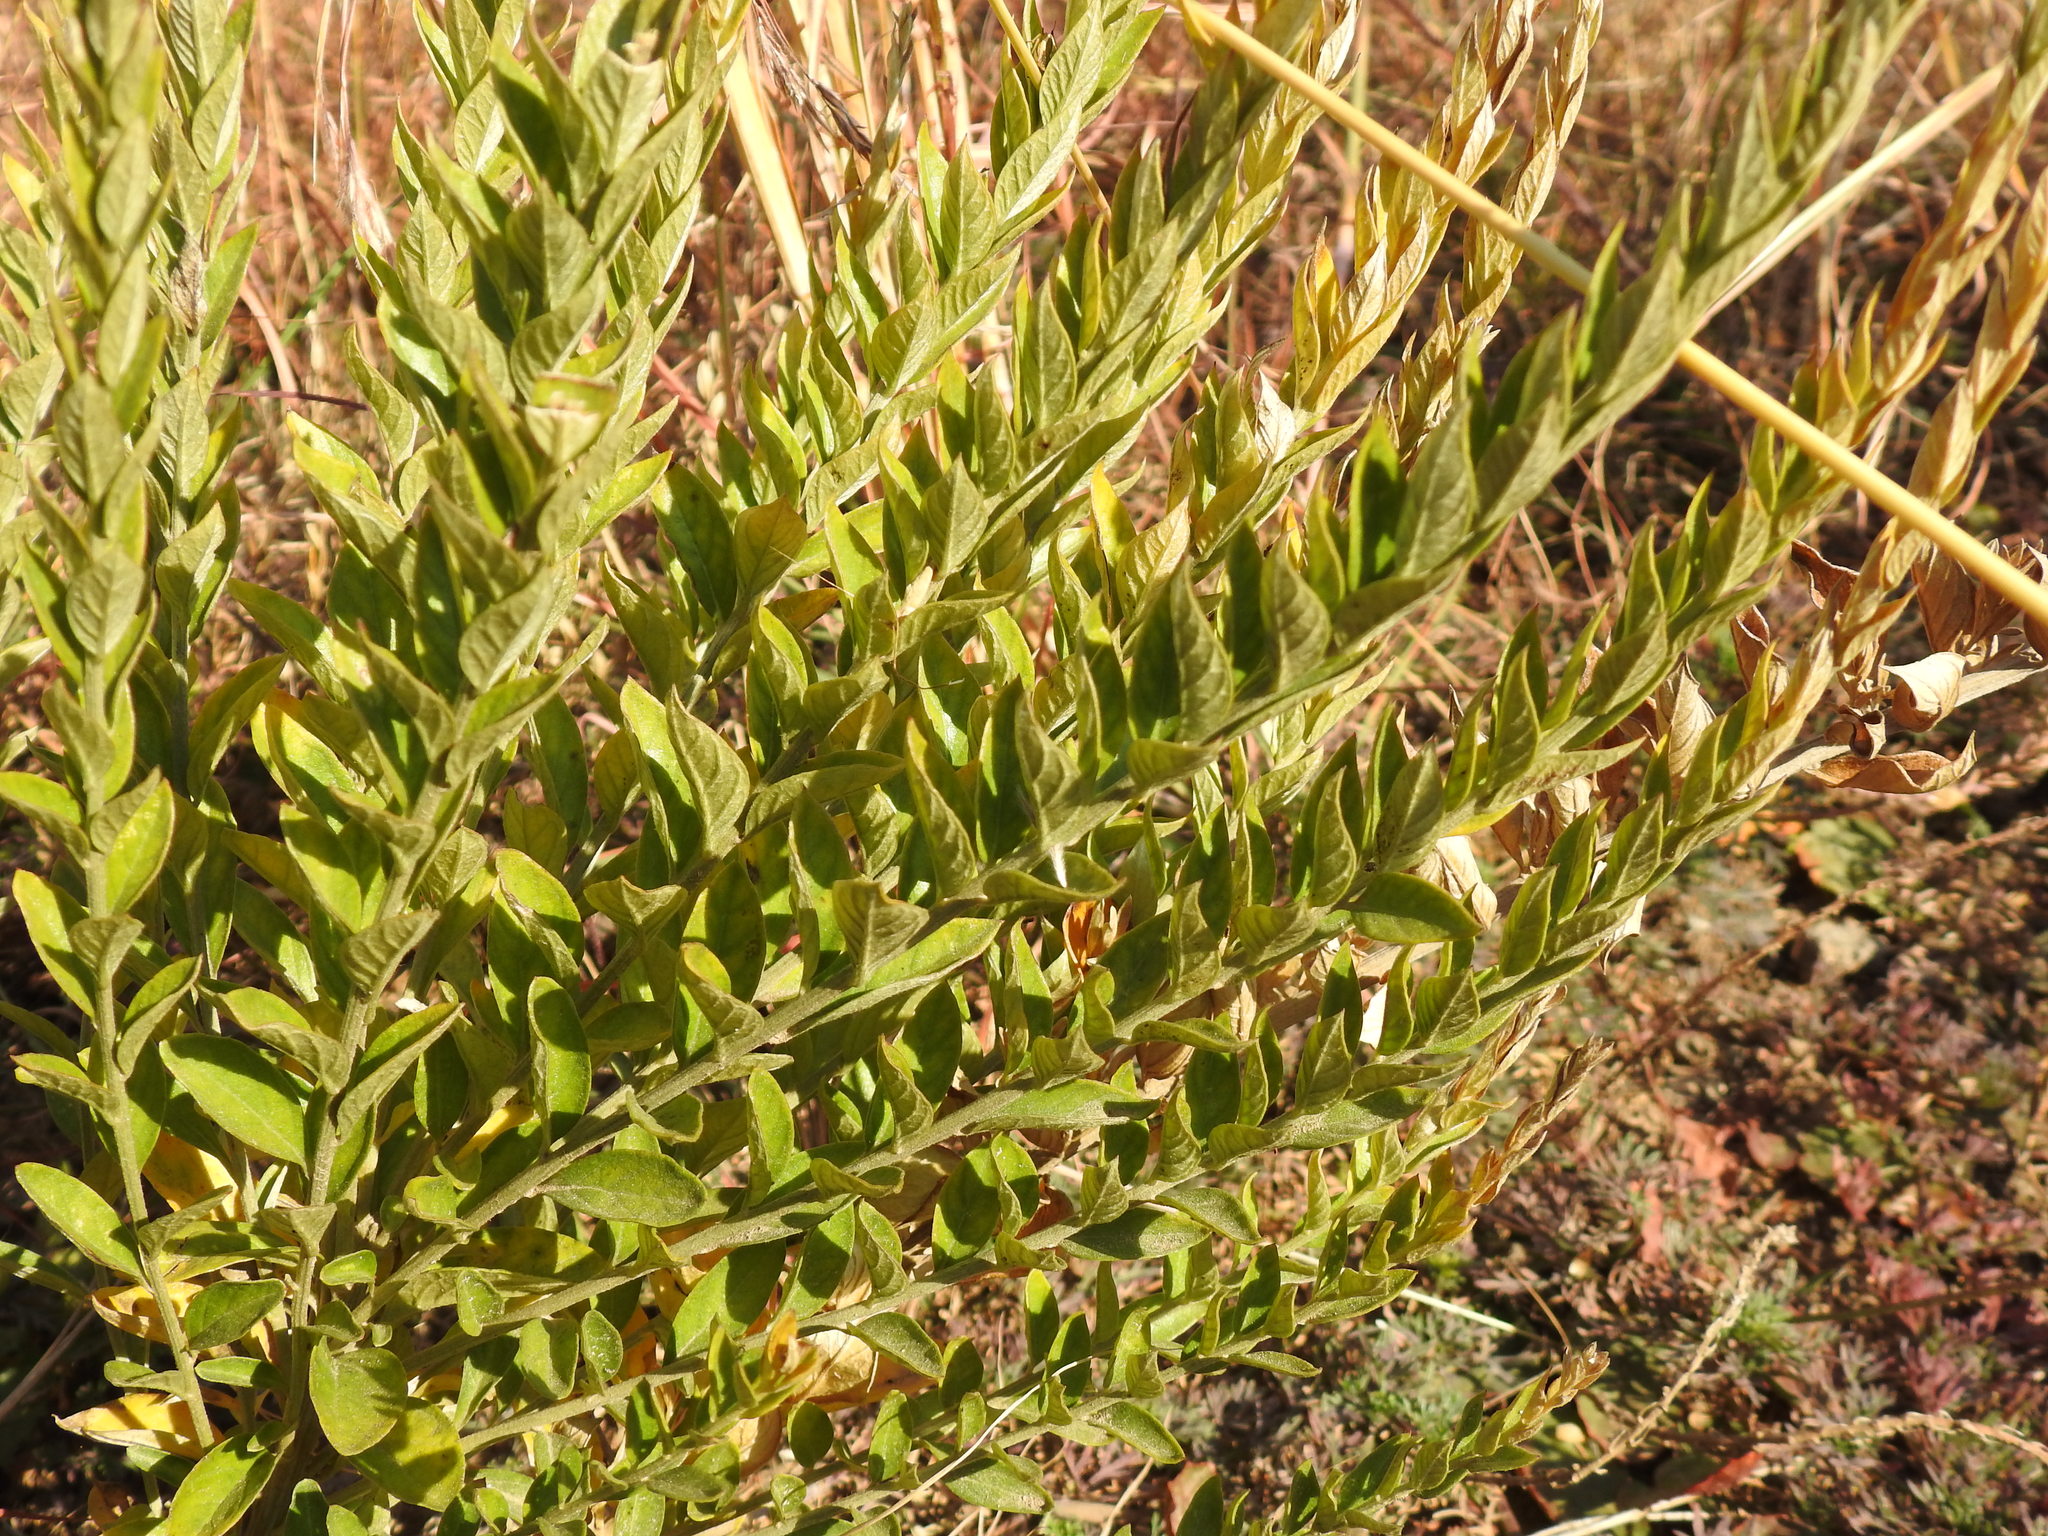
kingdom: Plantae
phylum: Tracheophyta
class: Magnoliopsida
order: Asterales
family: Asteraceae
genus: Hilliardiella
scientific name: Hilliardiella oligocephala
